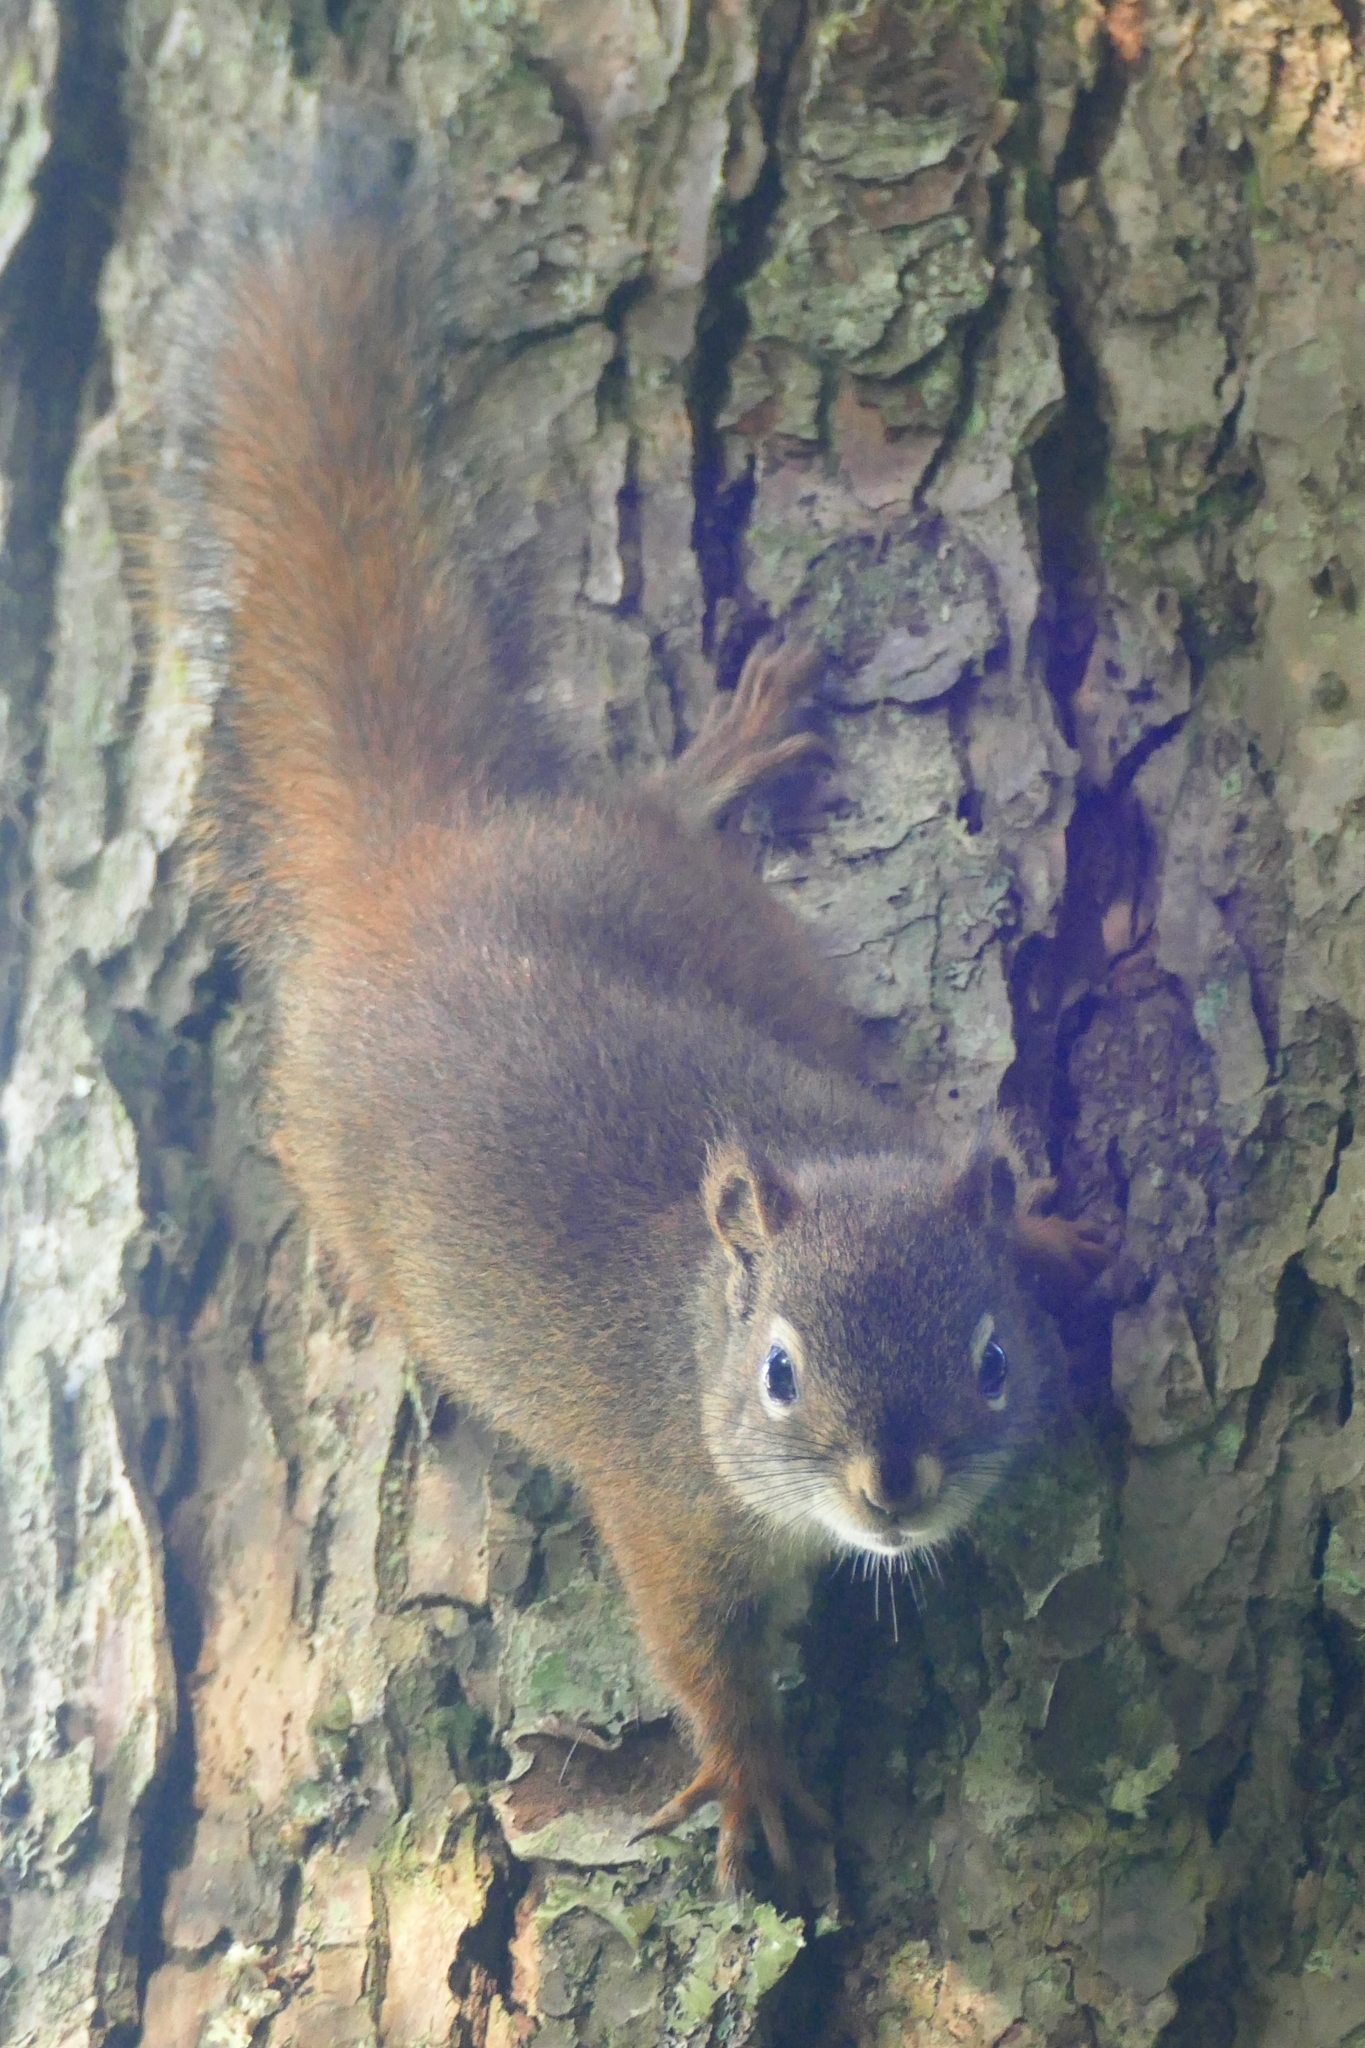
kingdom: Animalia
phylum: Chordata
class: Mammalia
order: Rodentia
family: Sciuridae
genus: Tamiasciurus
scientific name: Tamiasciurus hudsonicus
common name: Red squirrel
